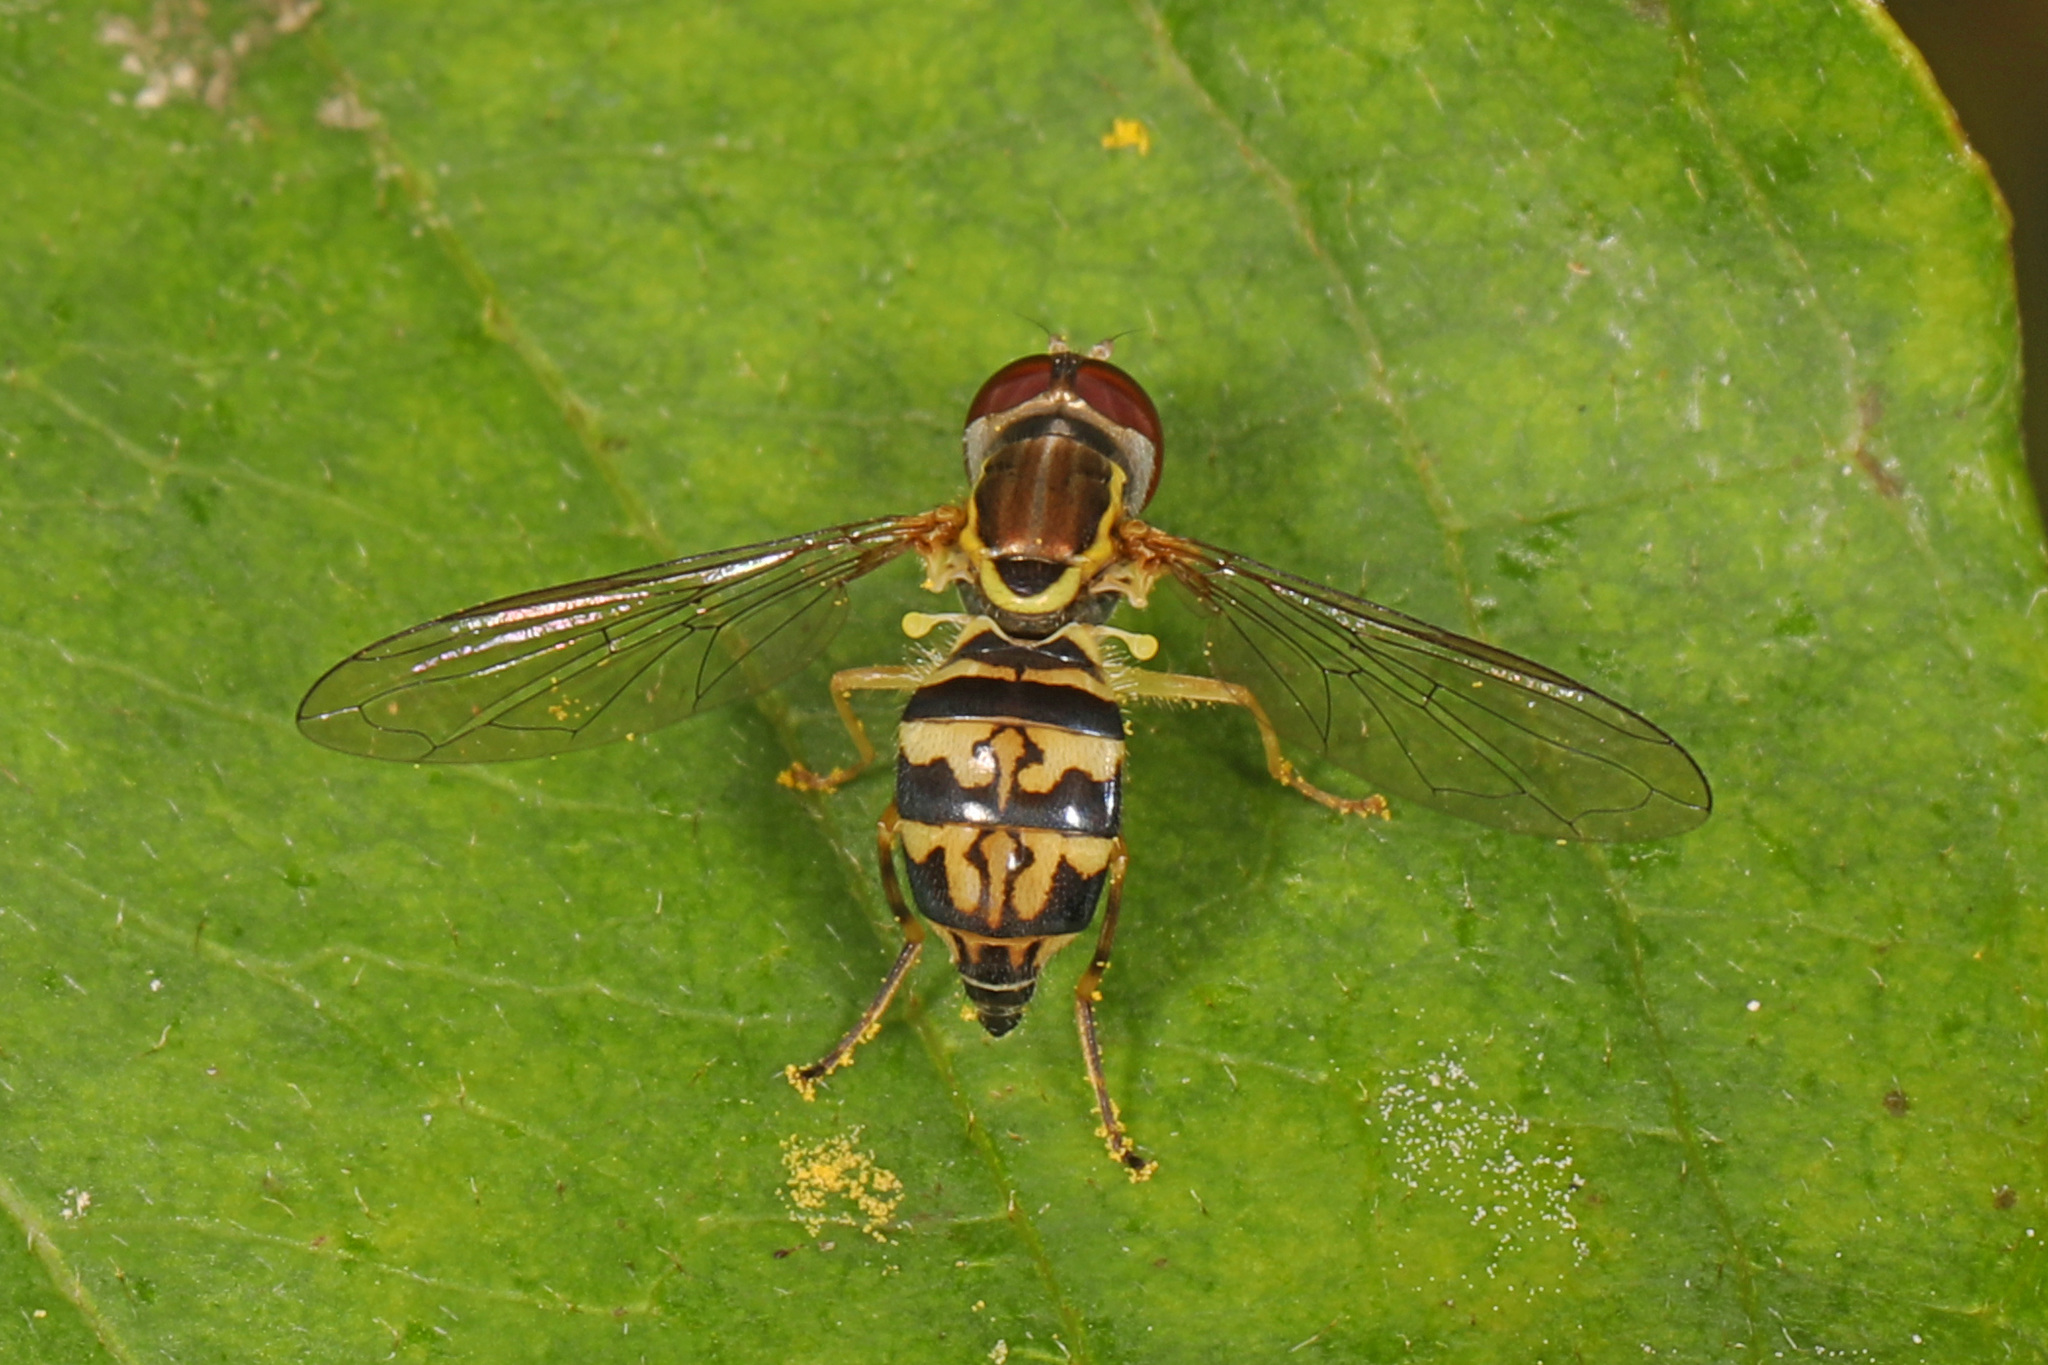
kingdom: Animalia
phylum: Arthropoda
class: Insecta
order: Diptera
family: Syrphidae
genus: Toxomerus
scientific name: Toxomerus geminatus
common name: Eastern calligrapher
